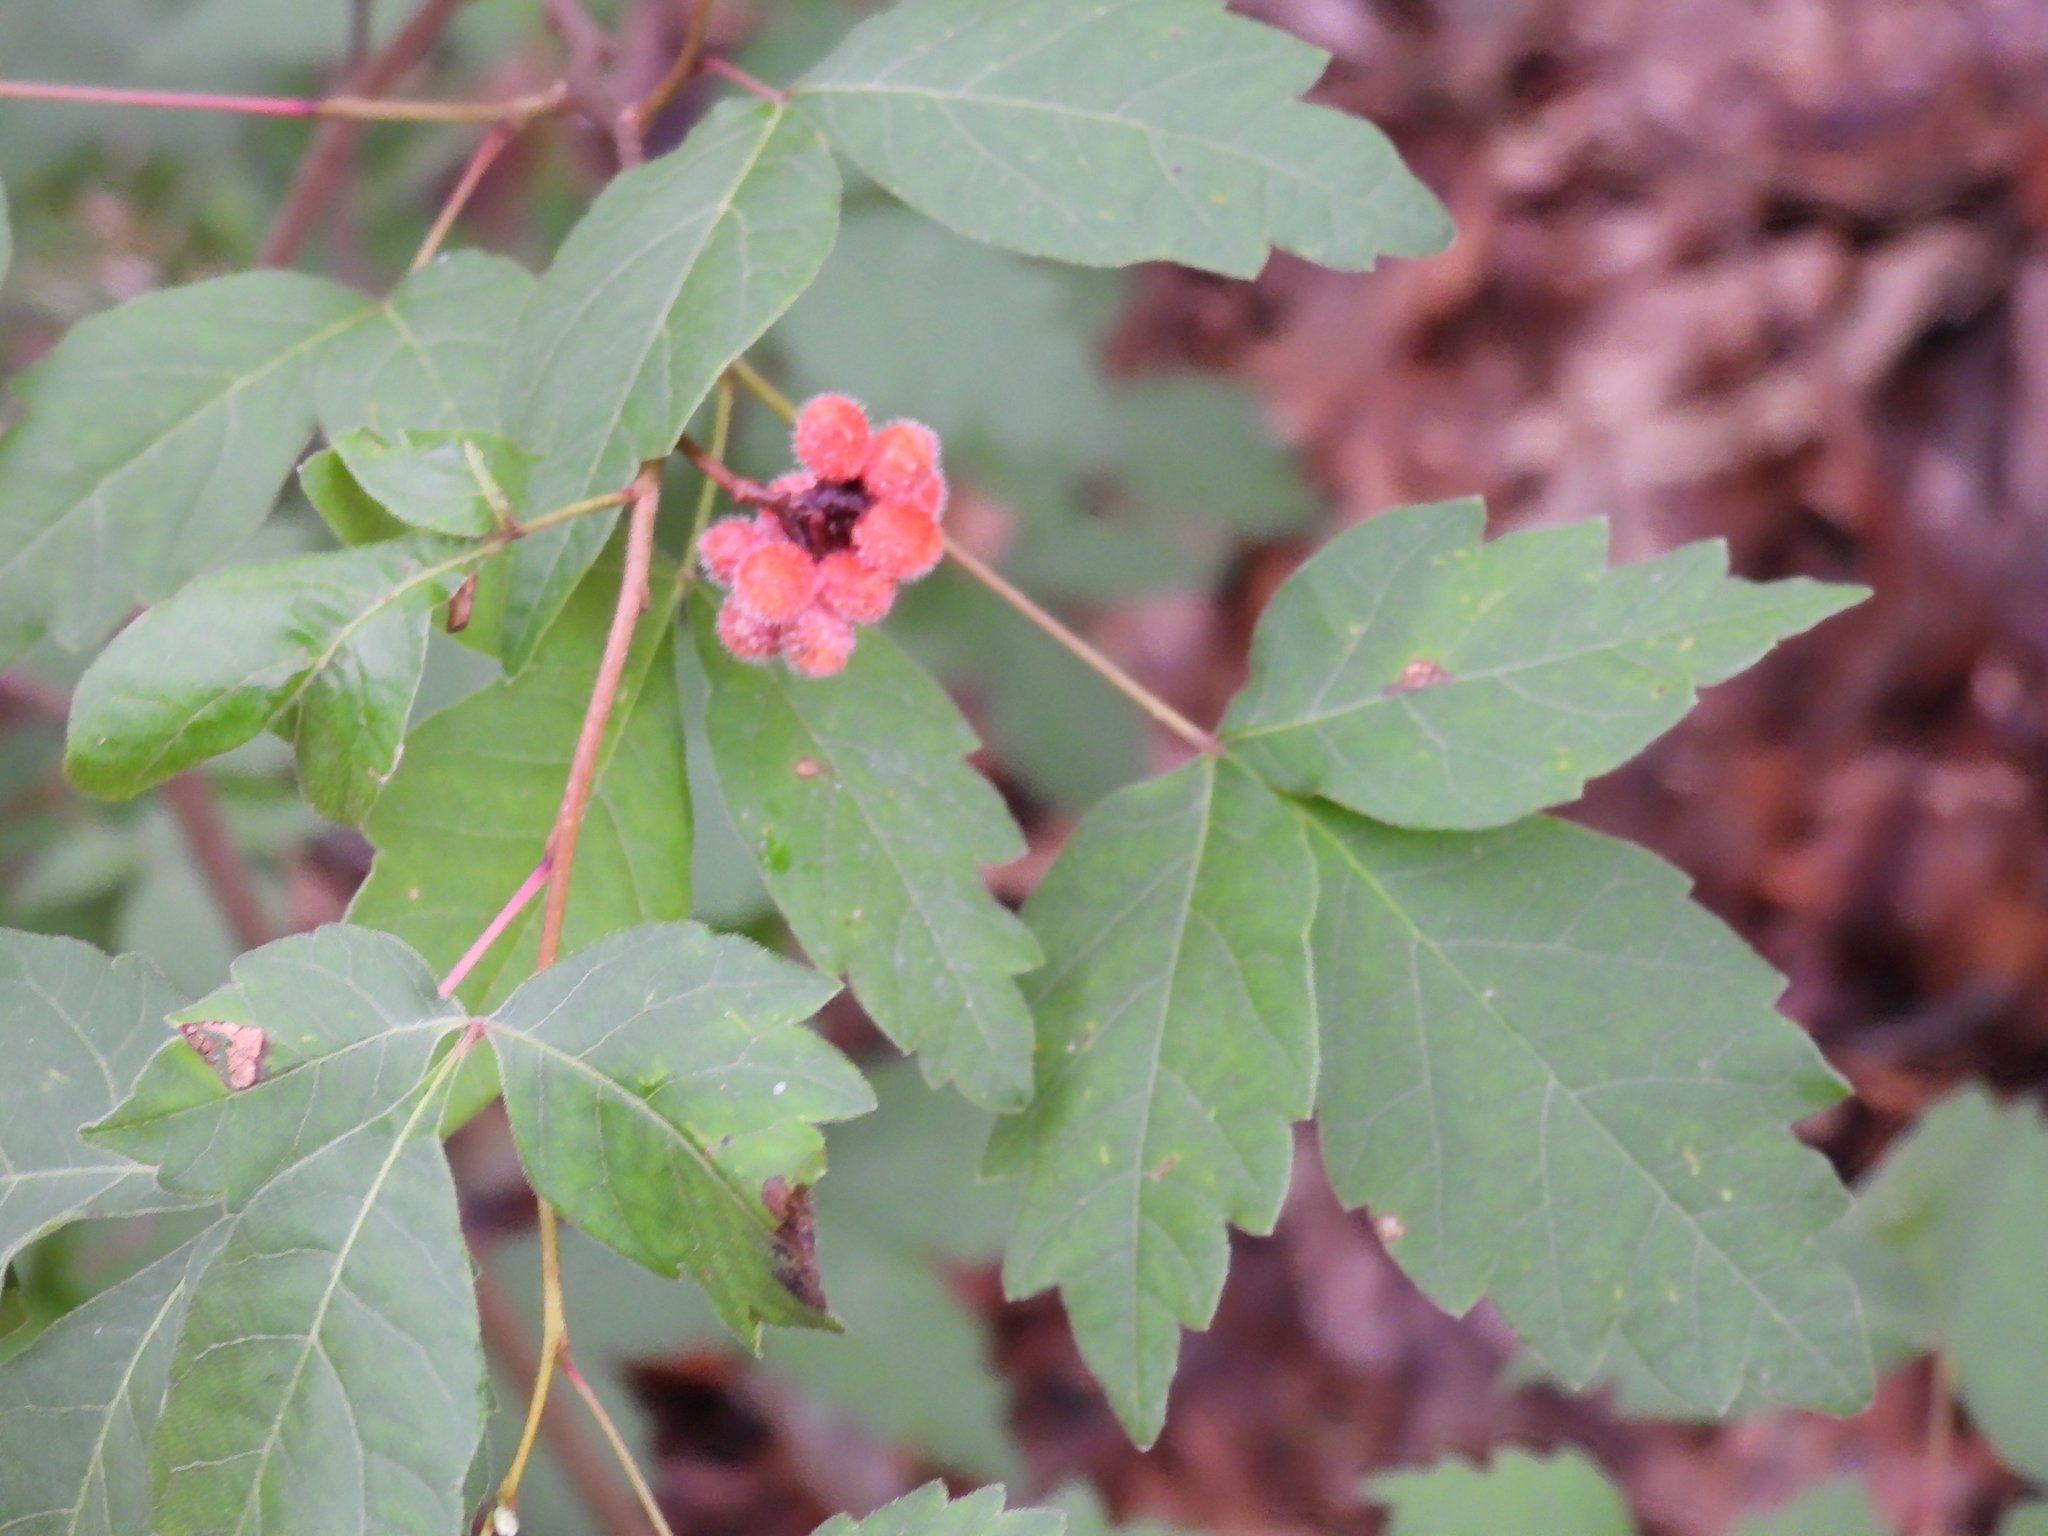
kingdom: Plantae
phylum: Tracheophyta
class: Magnoliopsida
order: Sapindales
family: Anacardiaceae
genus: Rhus
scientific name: Rhus aromatica
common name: Aromatic sumac
